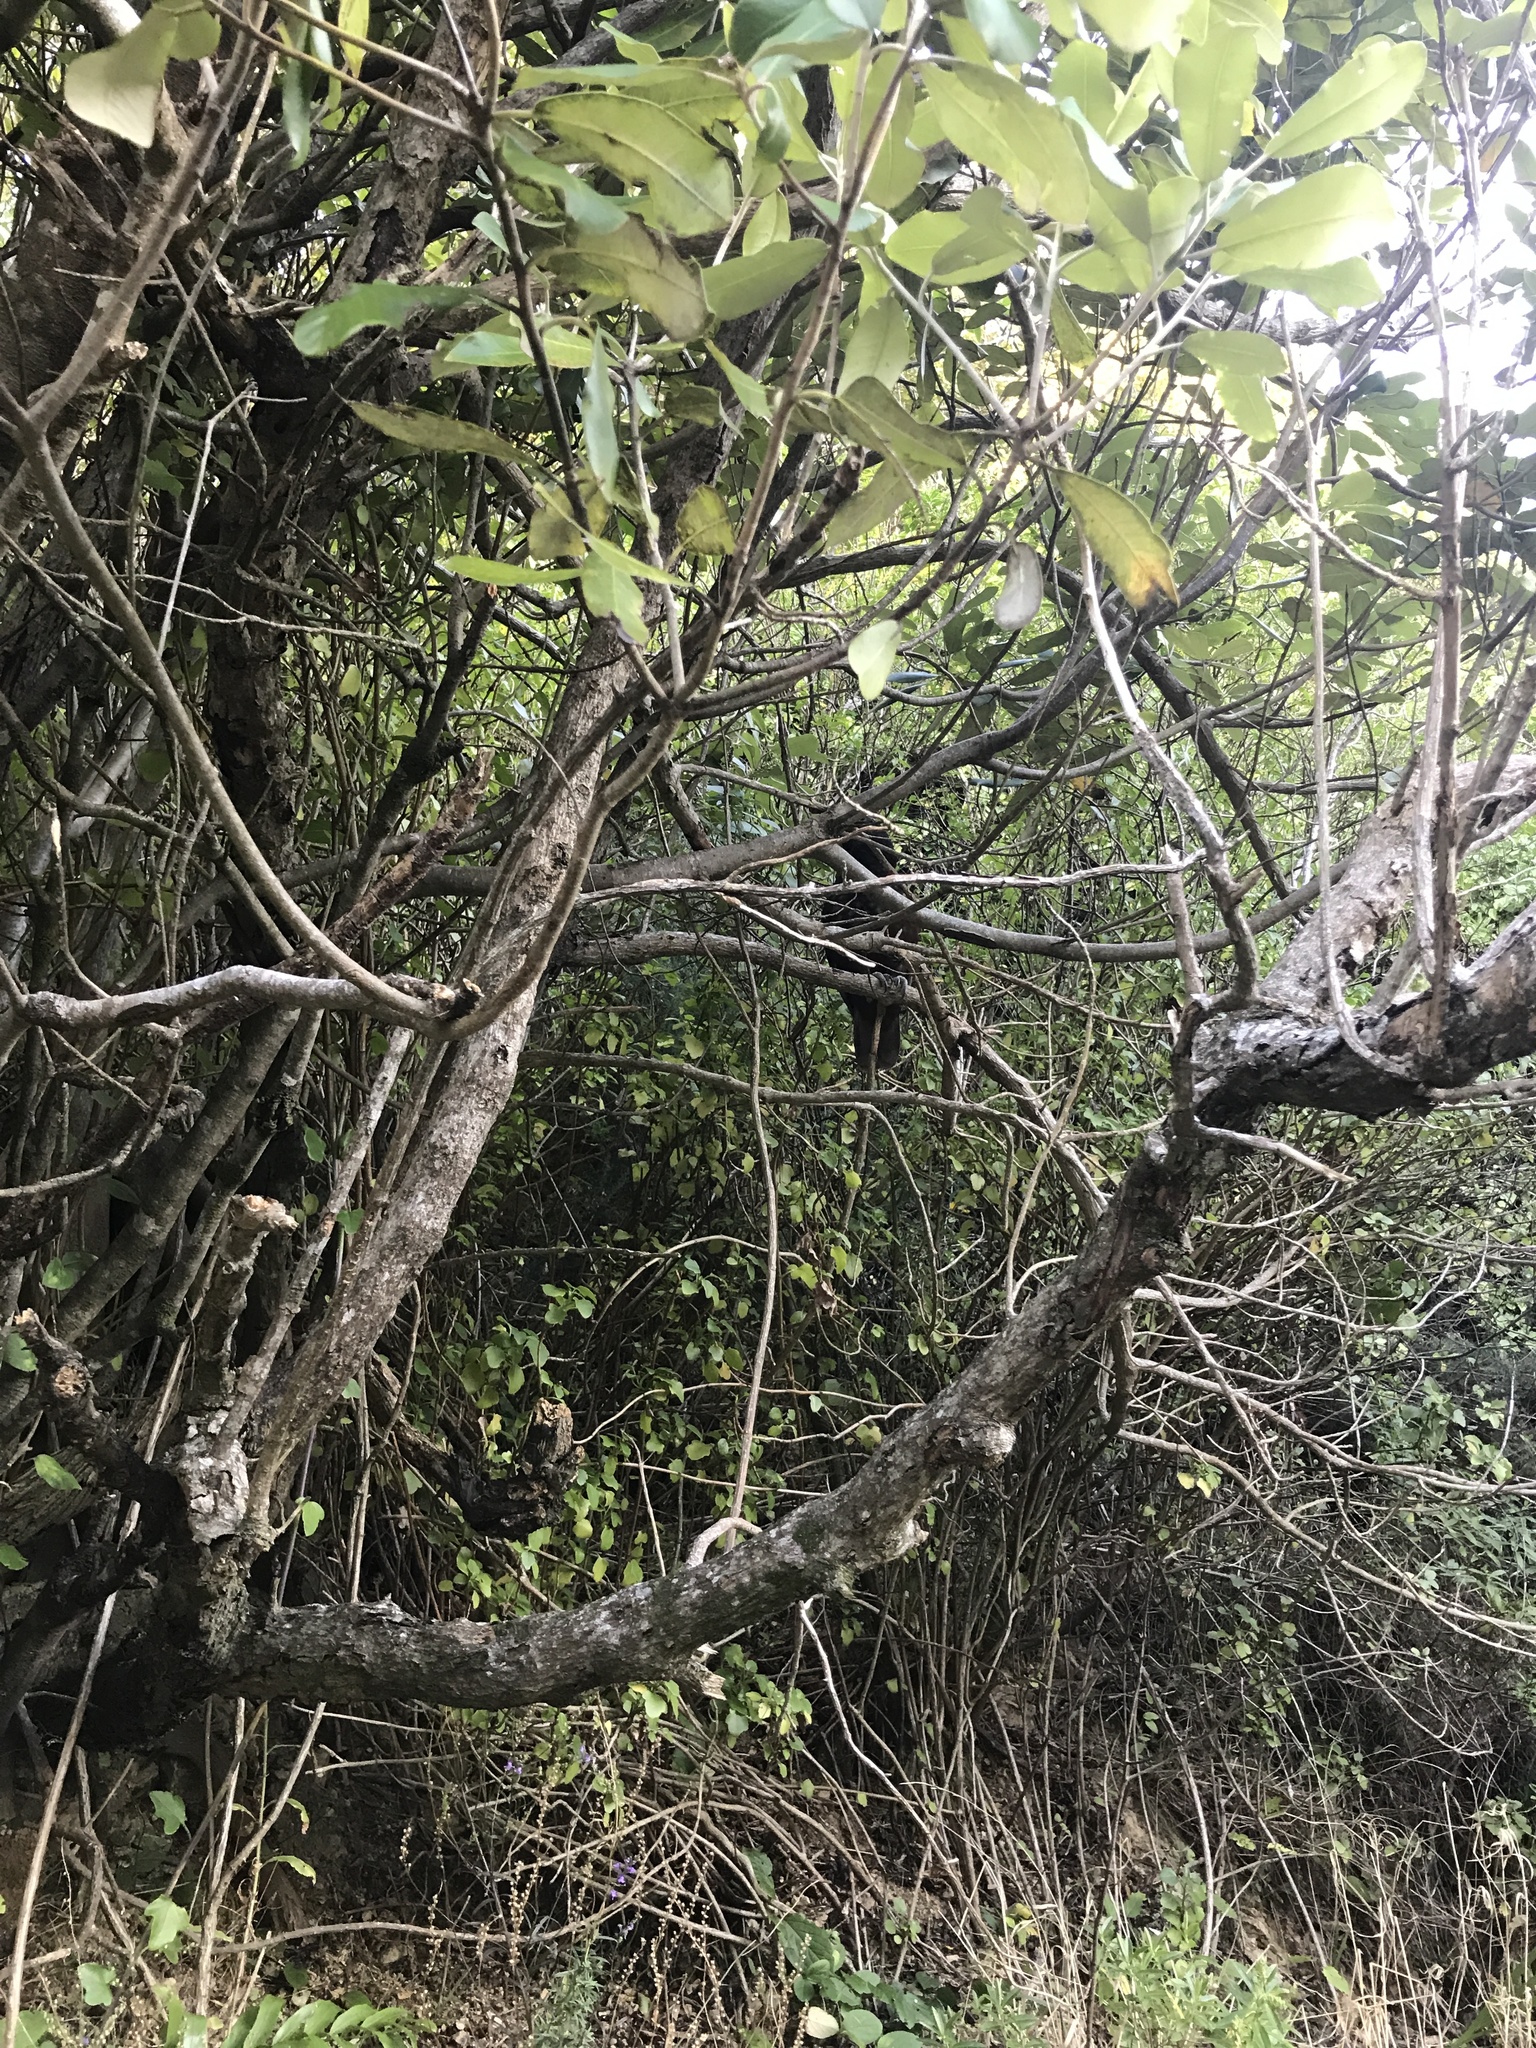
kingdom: Animalia
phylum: Chordata
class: Aves
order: Psittaciformes
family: Psittacidae
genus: Nestor
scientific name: Nestor meridionalis
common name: New zealand kaka
